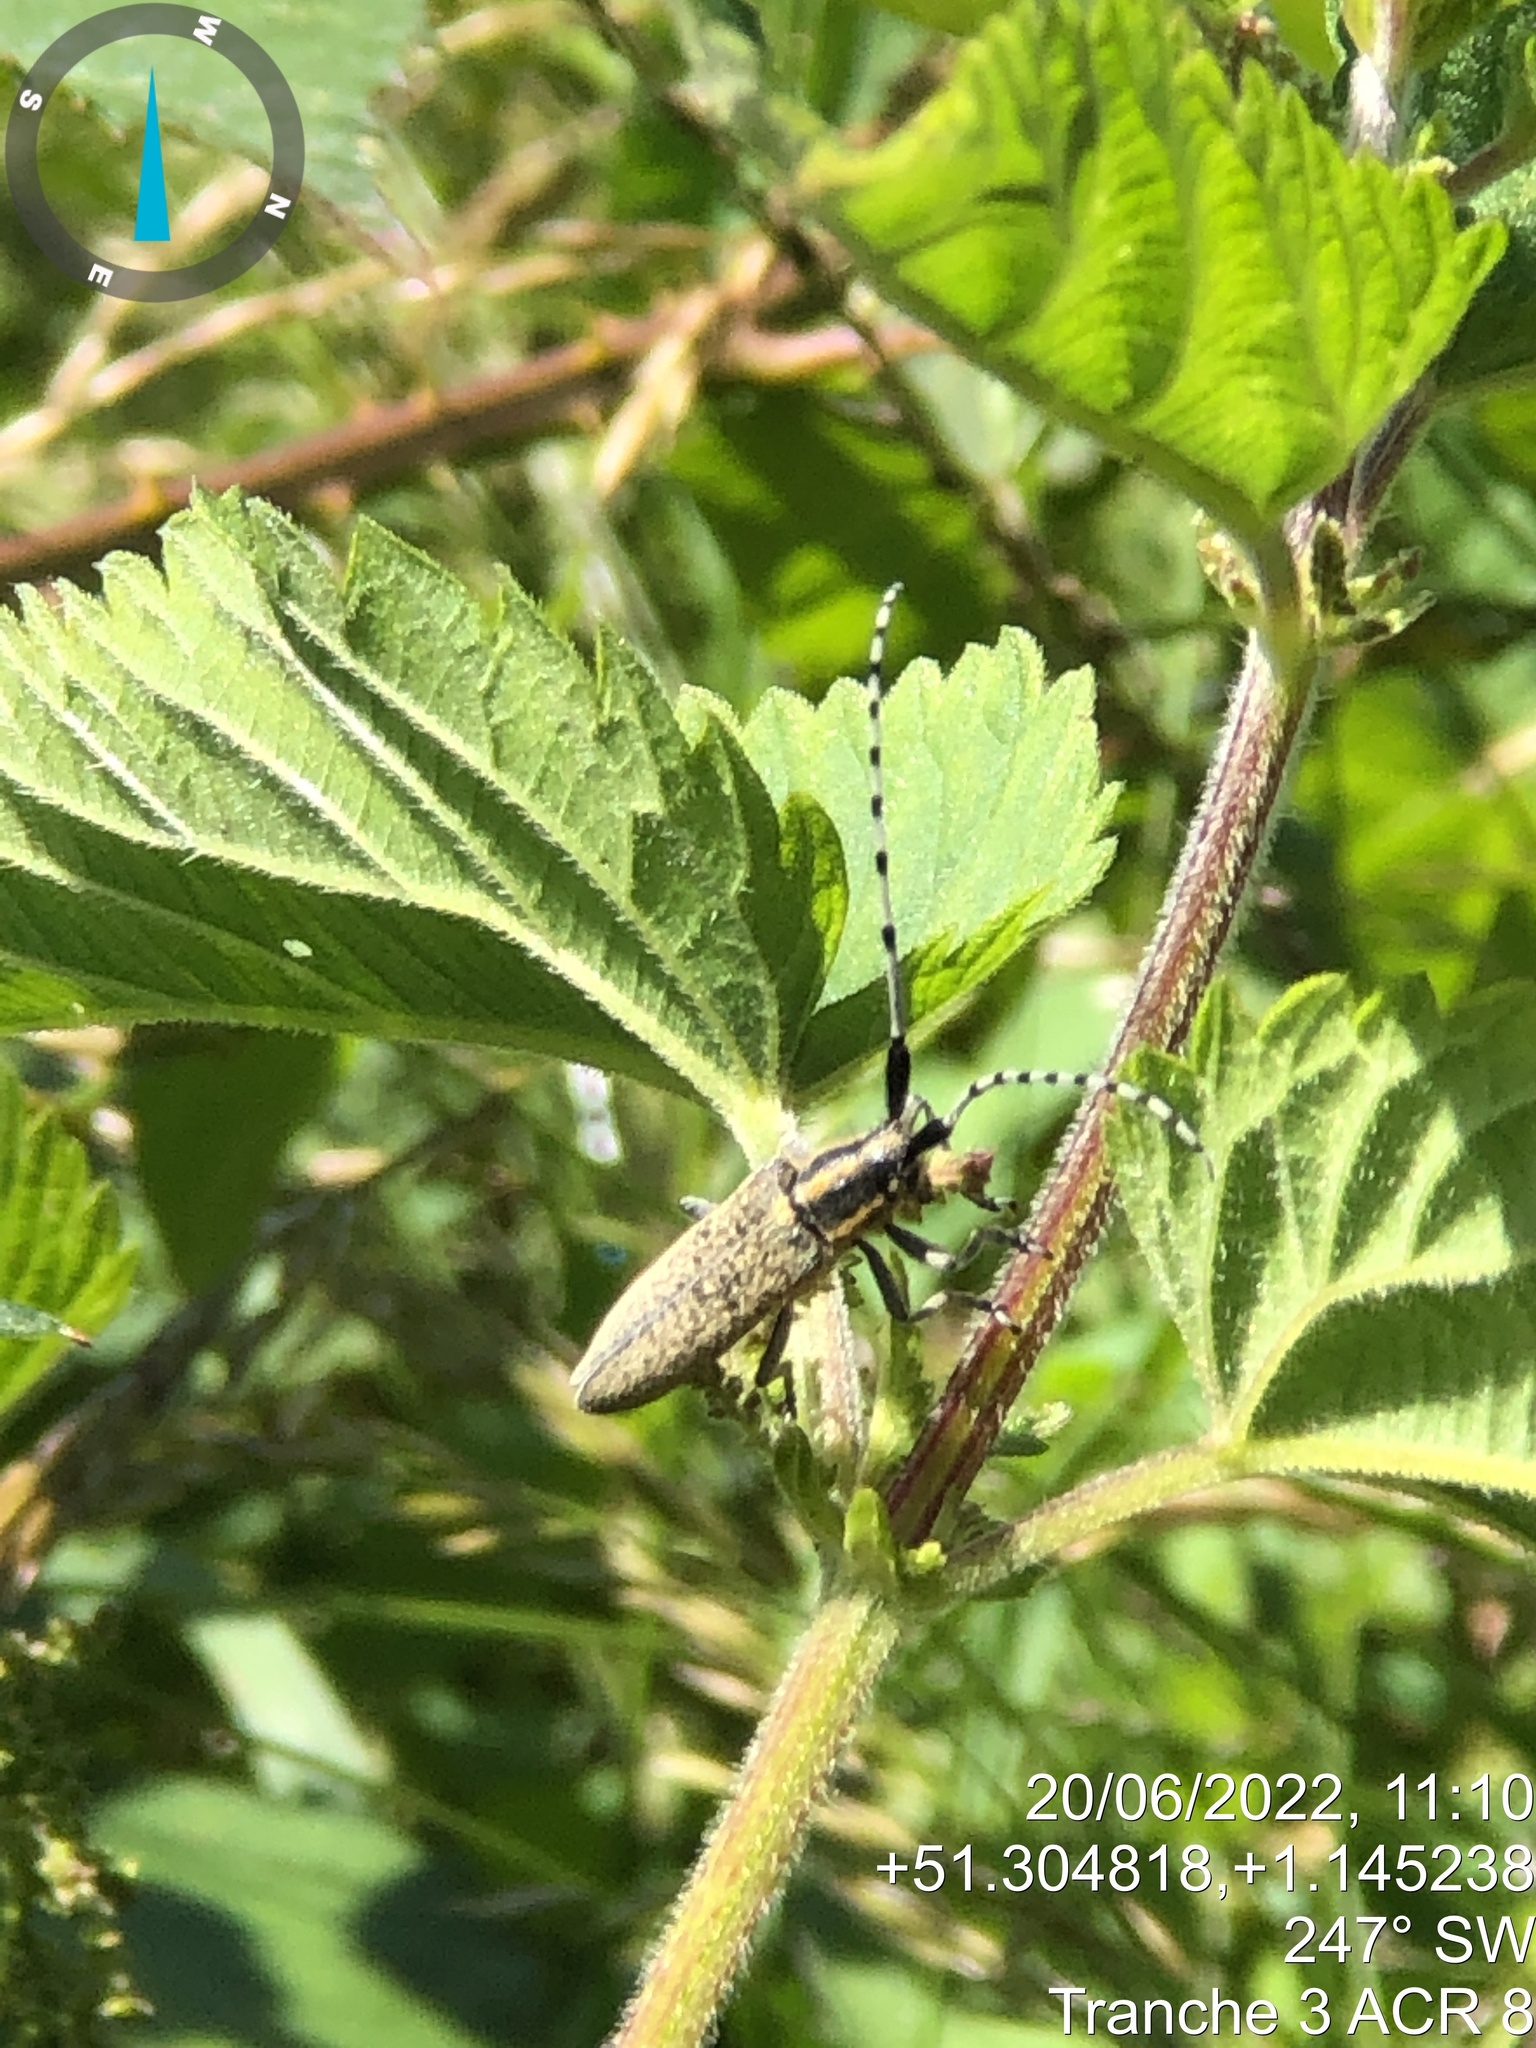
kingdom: Animalia
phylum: Arthropoda
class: Insecta
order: Coleoptera
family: Cerambycidae
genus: Agapanthia
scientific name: Agapanthia villosoviridescens
